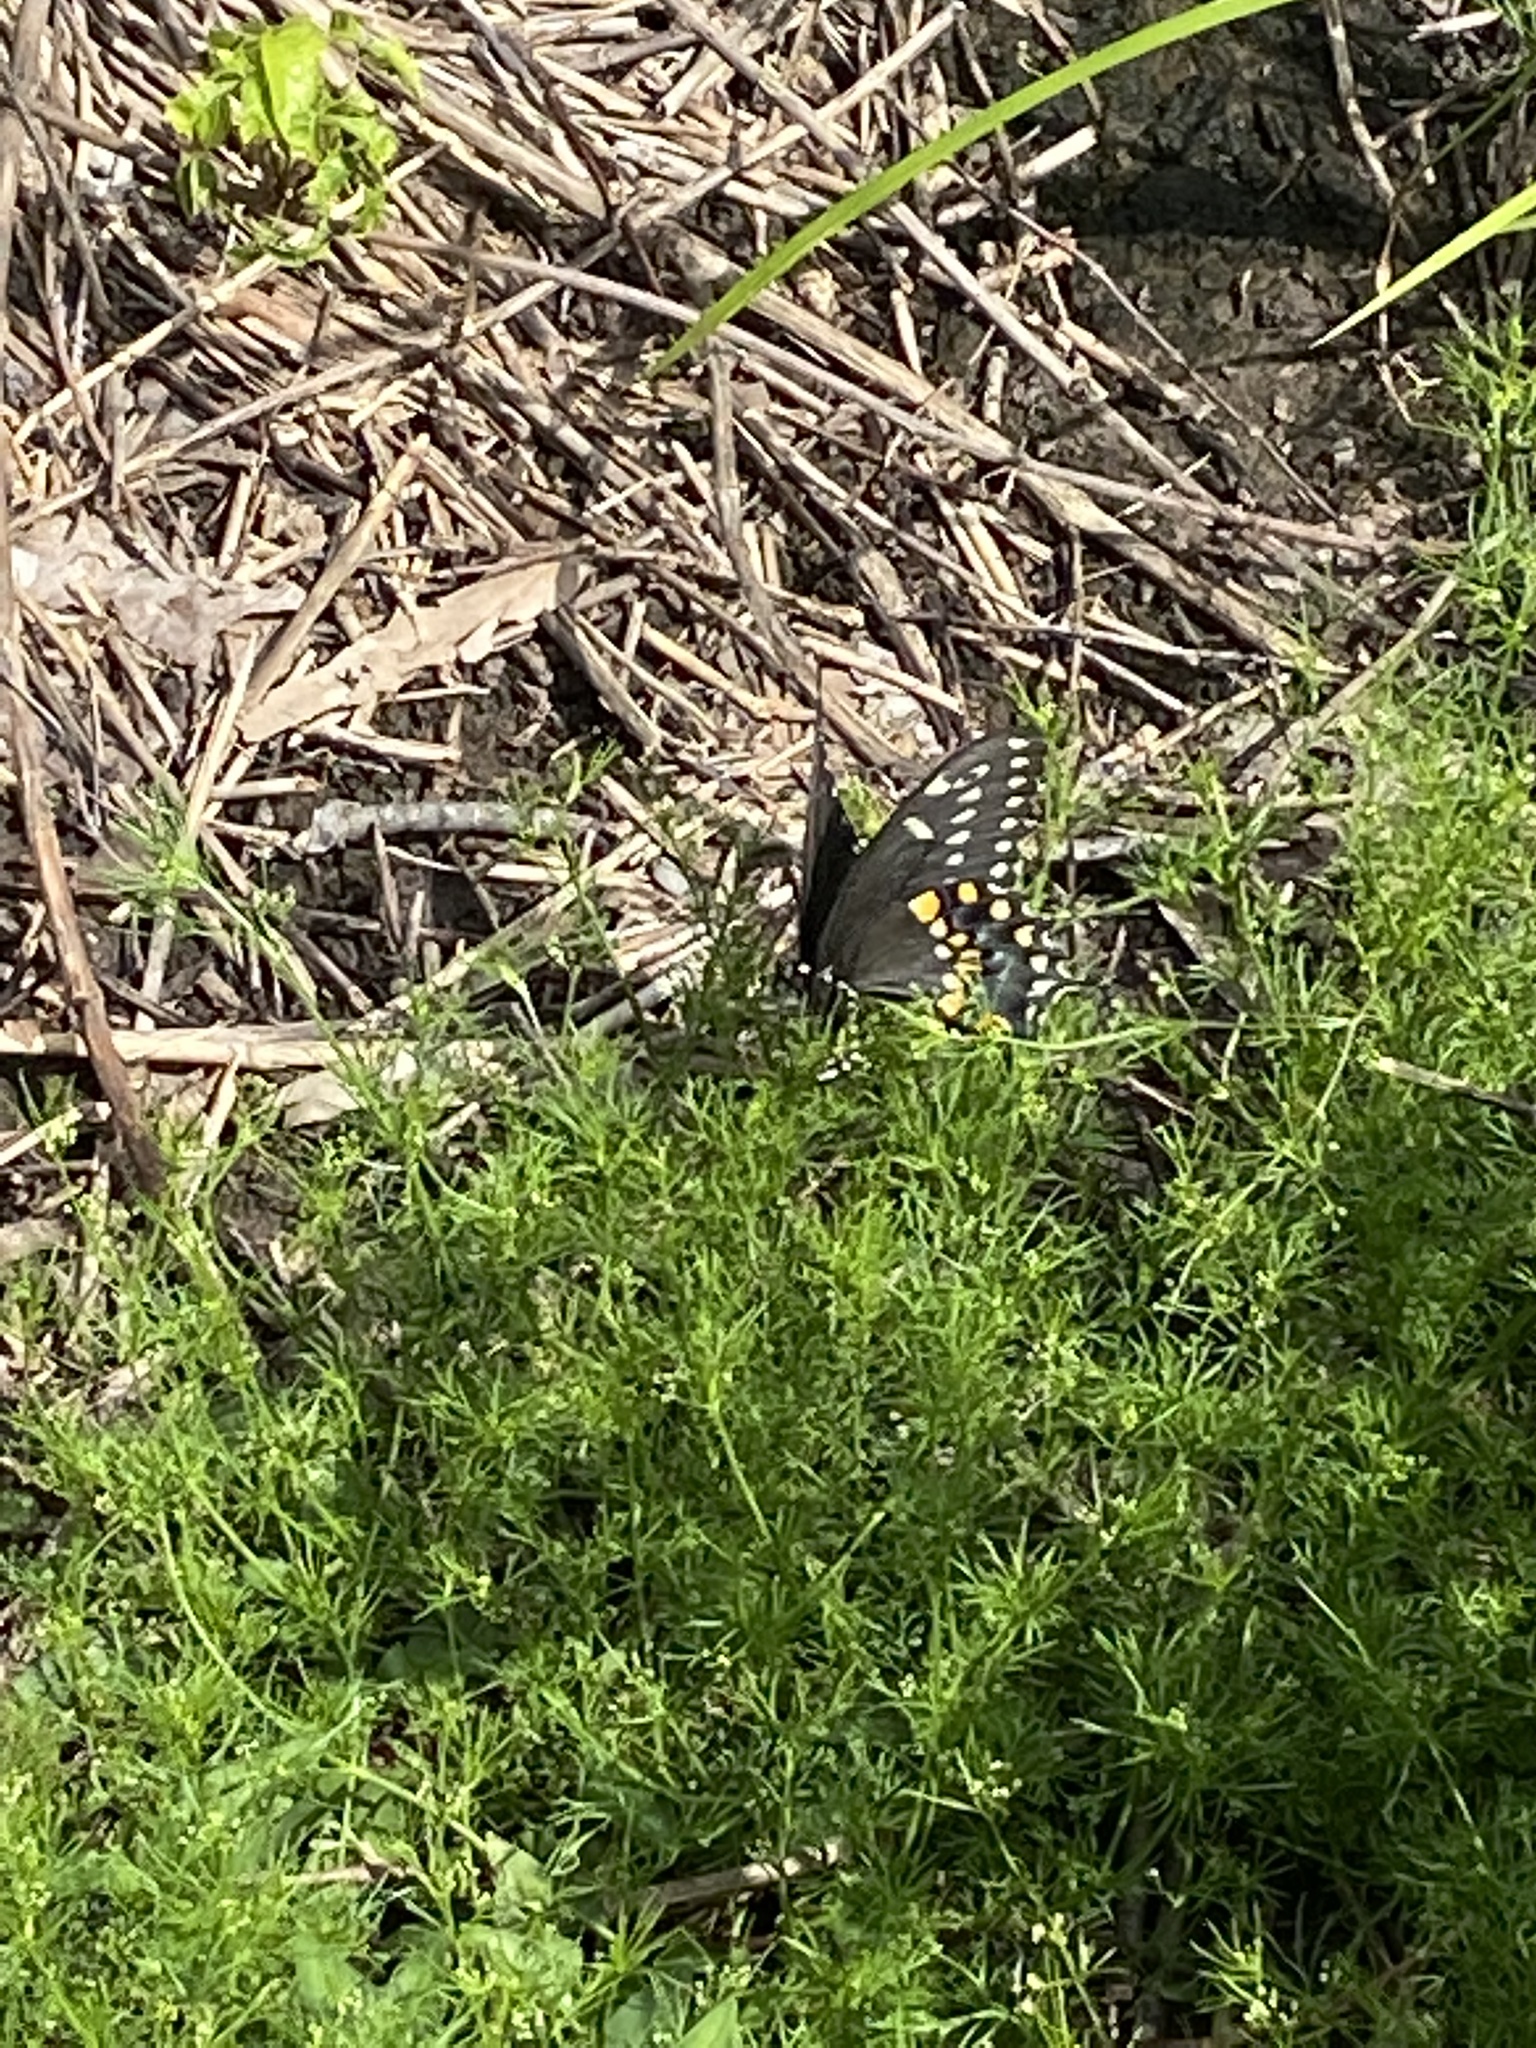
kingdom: Animalia
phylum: Arthropoda
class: Insecta
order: Lepidoptera
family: Papilionidae
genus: Papilio
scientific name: Papilio polyxenes
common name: Black swallowtail
